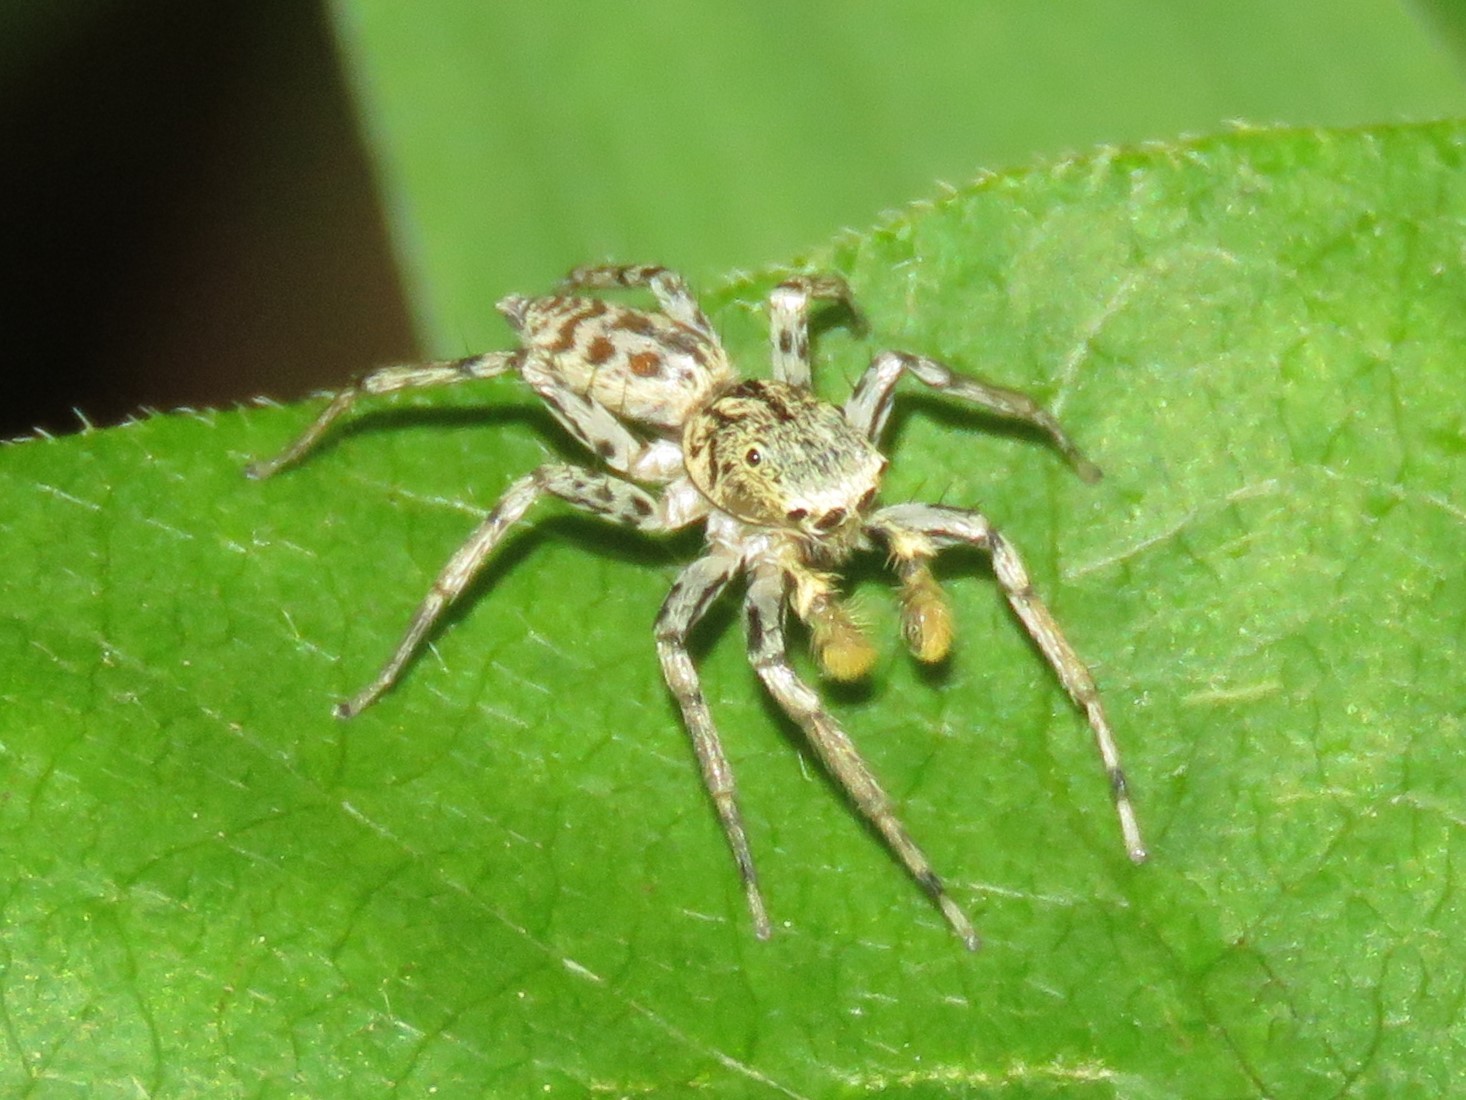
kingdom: Animalia
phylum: Arthropoda
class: Arachnida
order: Araneae
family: Salticidae
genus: Maevia
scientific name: Maevia inclemens
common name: Dimorphic jumper
